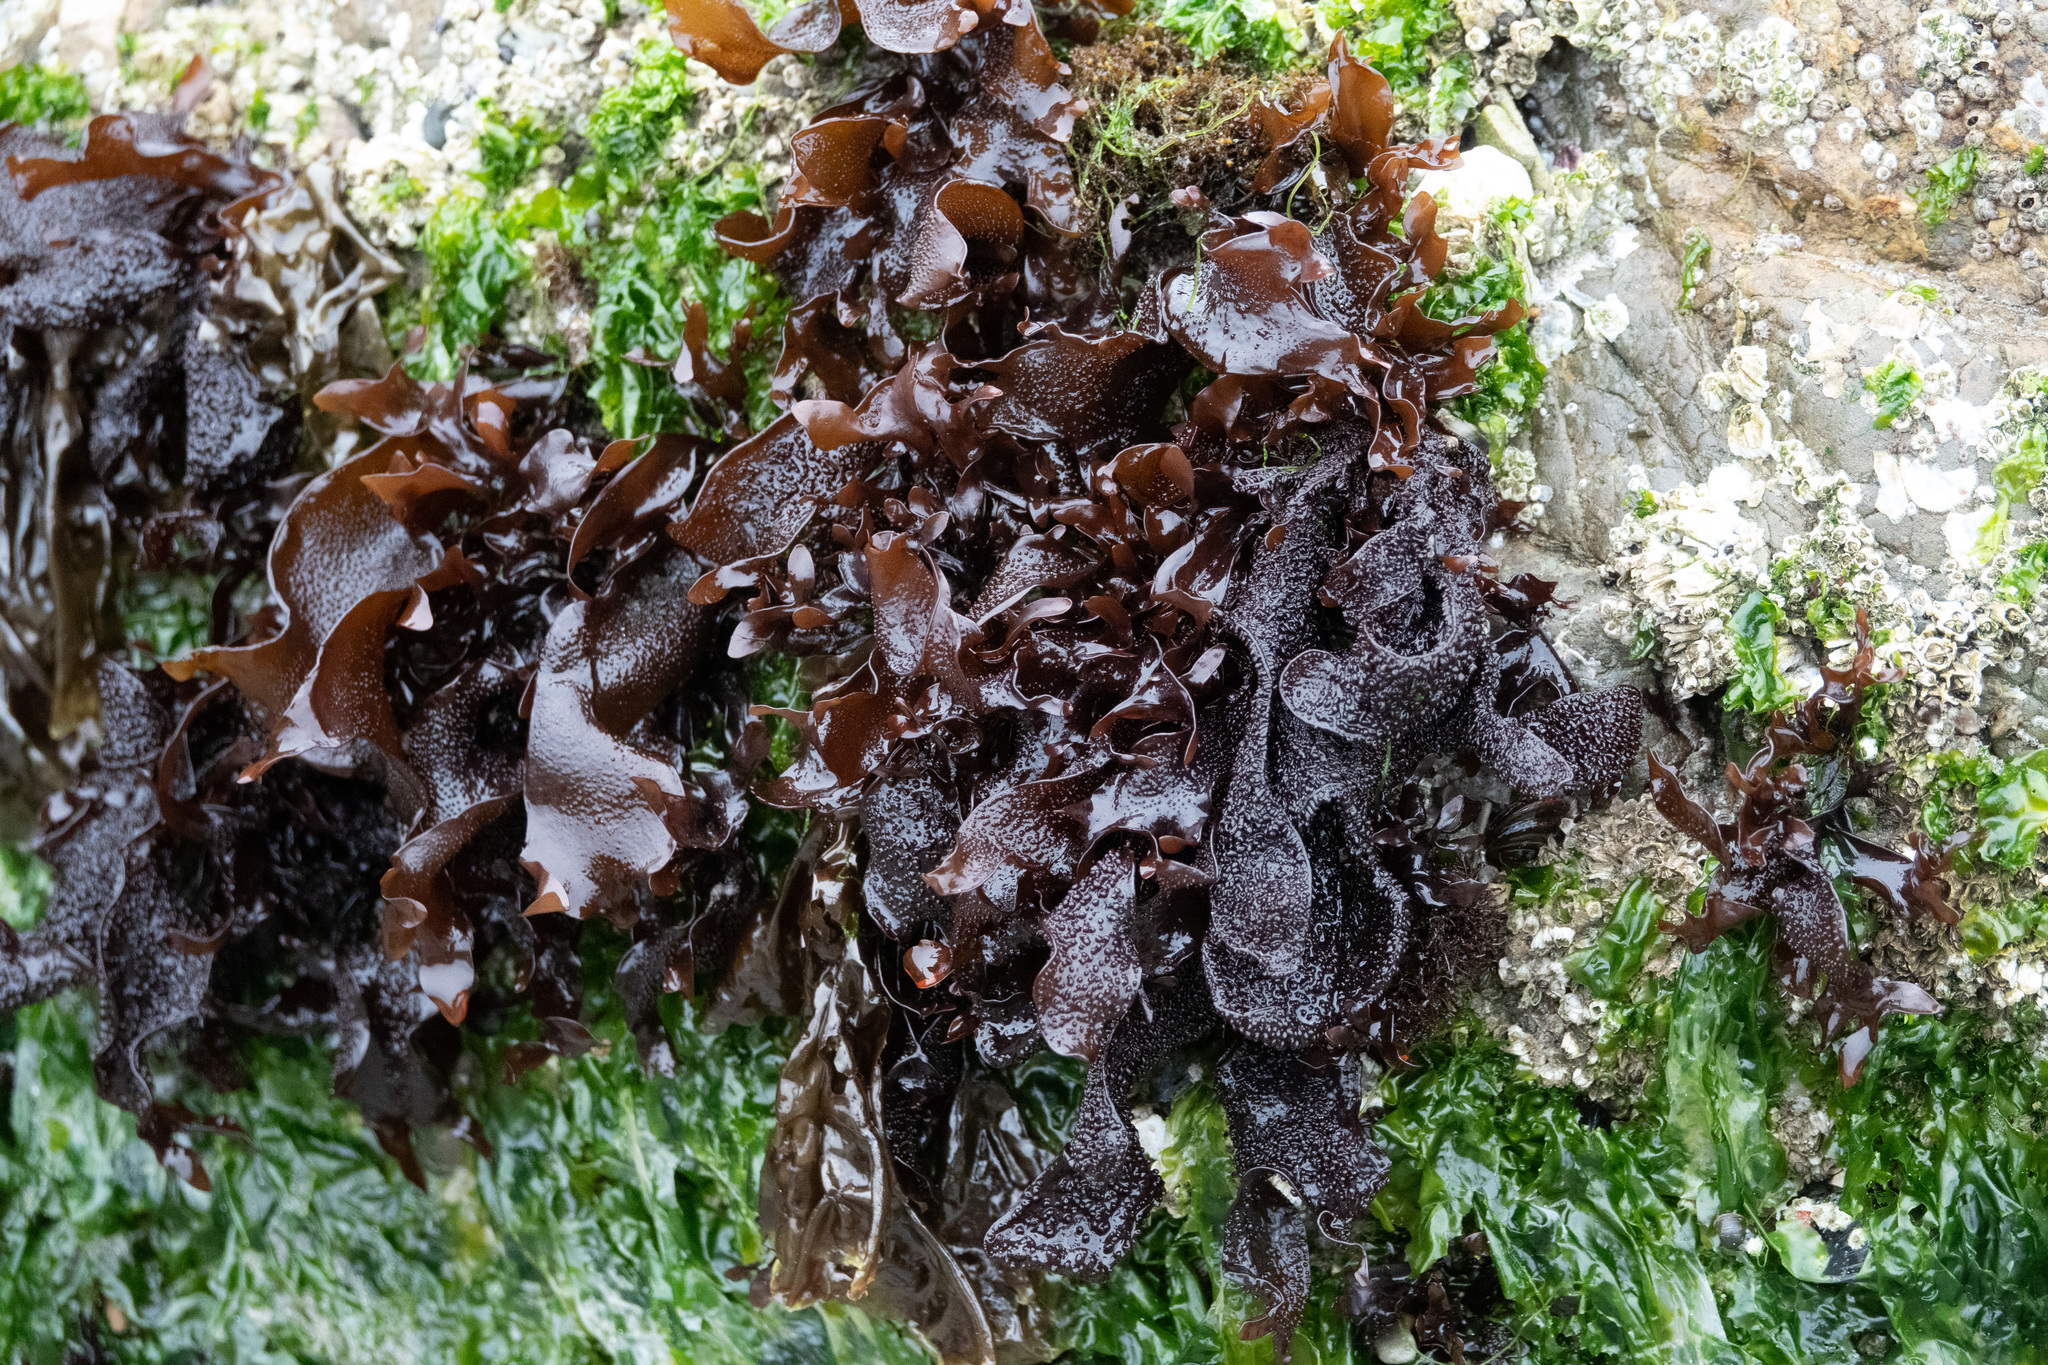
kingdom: Plantae
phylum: Rhodophyta
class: Florideophyceae
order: Gigartinales
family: Phyllophoraceae
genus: Mastocarpus
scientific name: Mastocarpus papillatus
